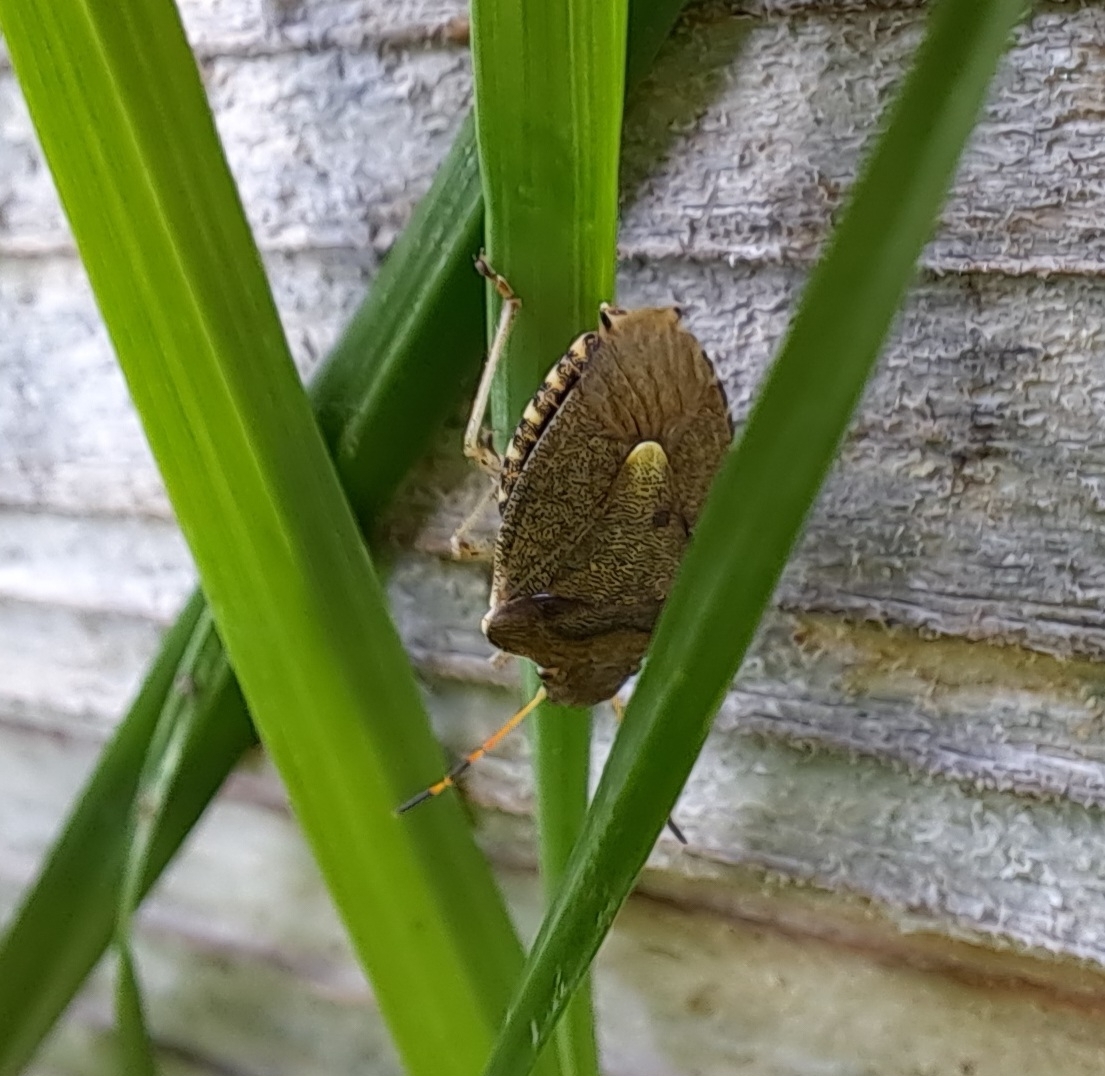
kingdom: Animalia
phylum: Arthropoda
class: Insecta
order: Hemiptera
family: Pentatomidae
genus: Holcostethus
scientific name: Holcostethus strictus
